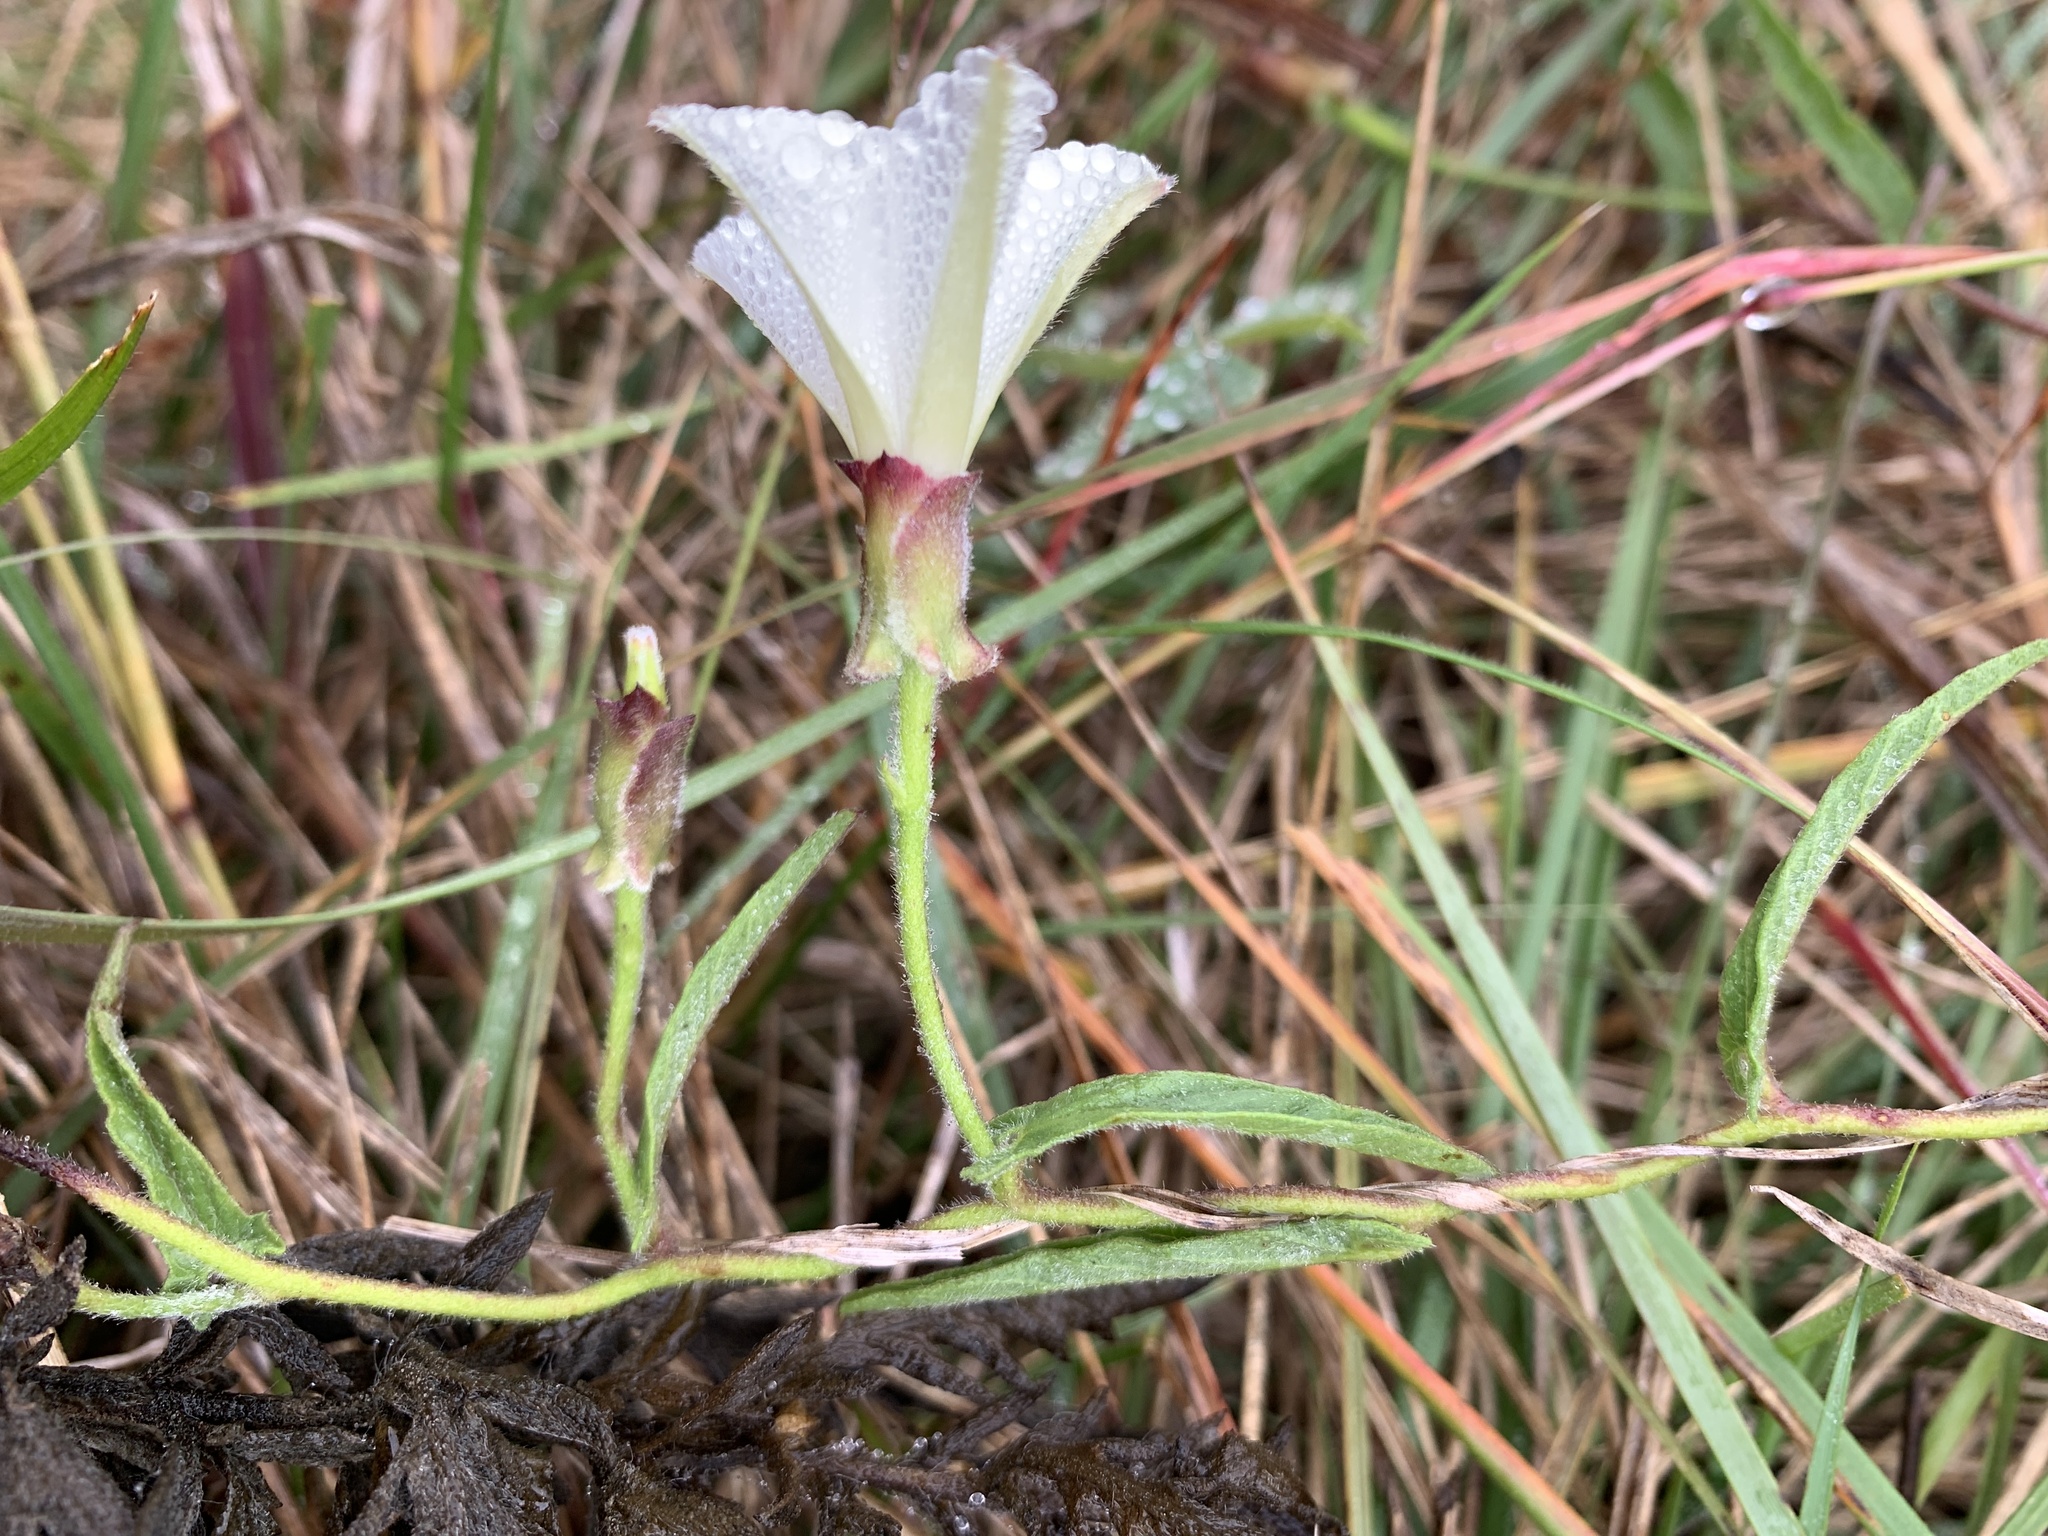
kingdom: Plantae
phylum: Tracheophyta
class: Magnoliopsida
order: Solanales
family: Convolvulaceae
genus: Convolvulus
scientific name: Convolvulus equitans
